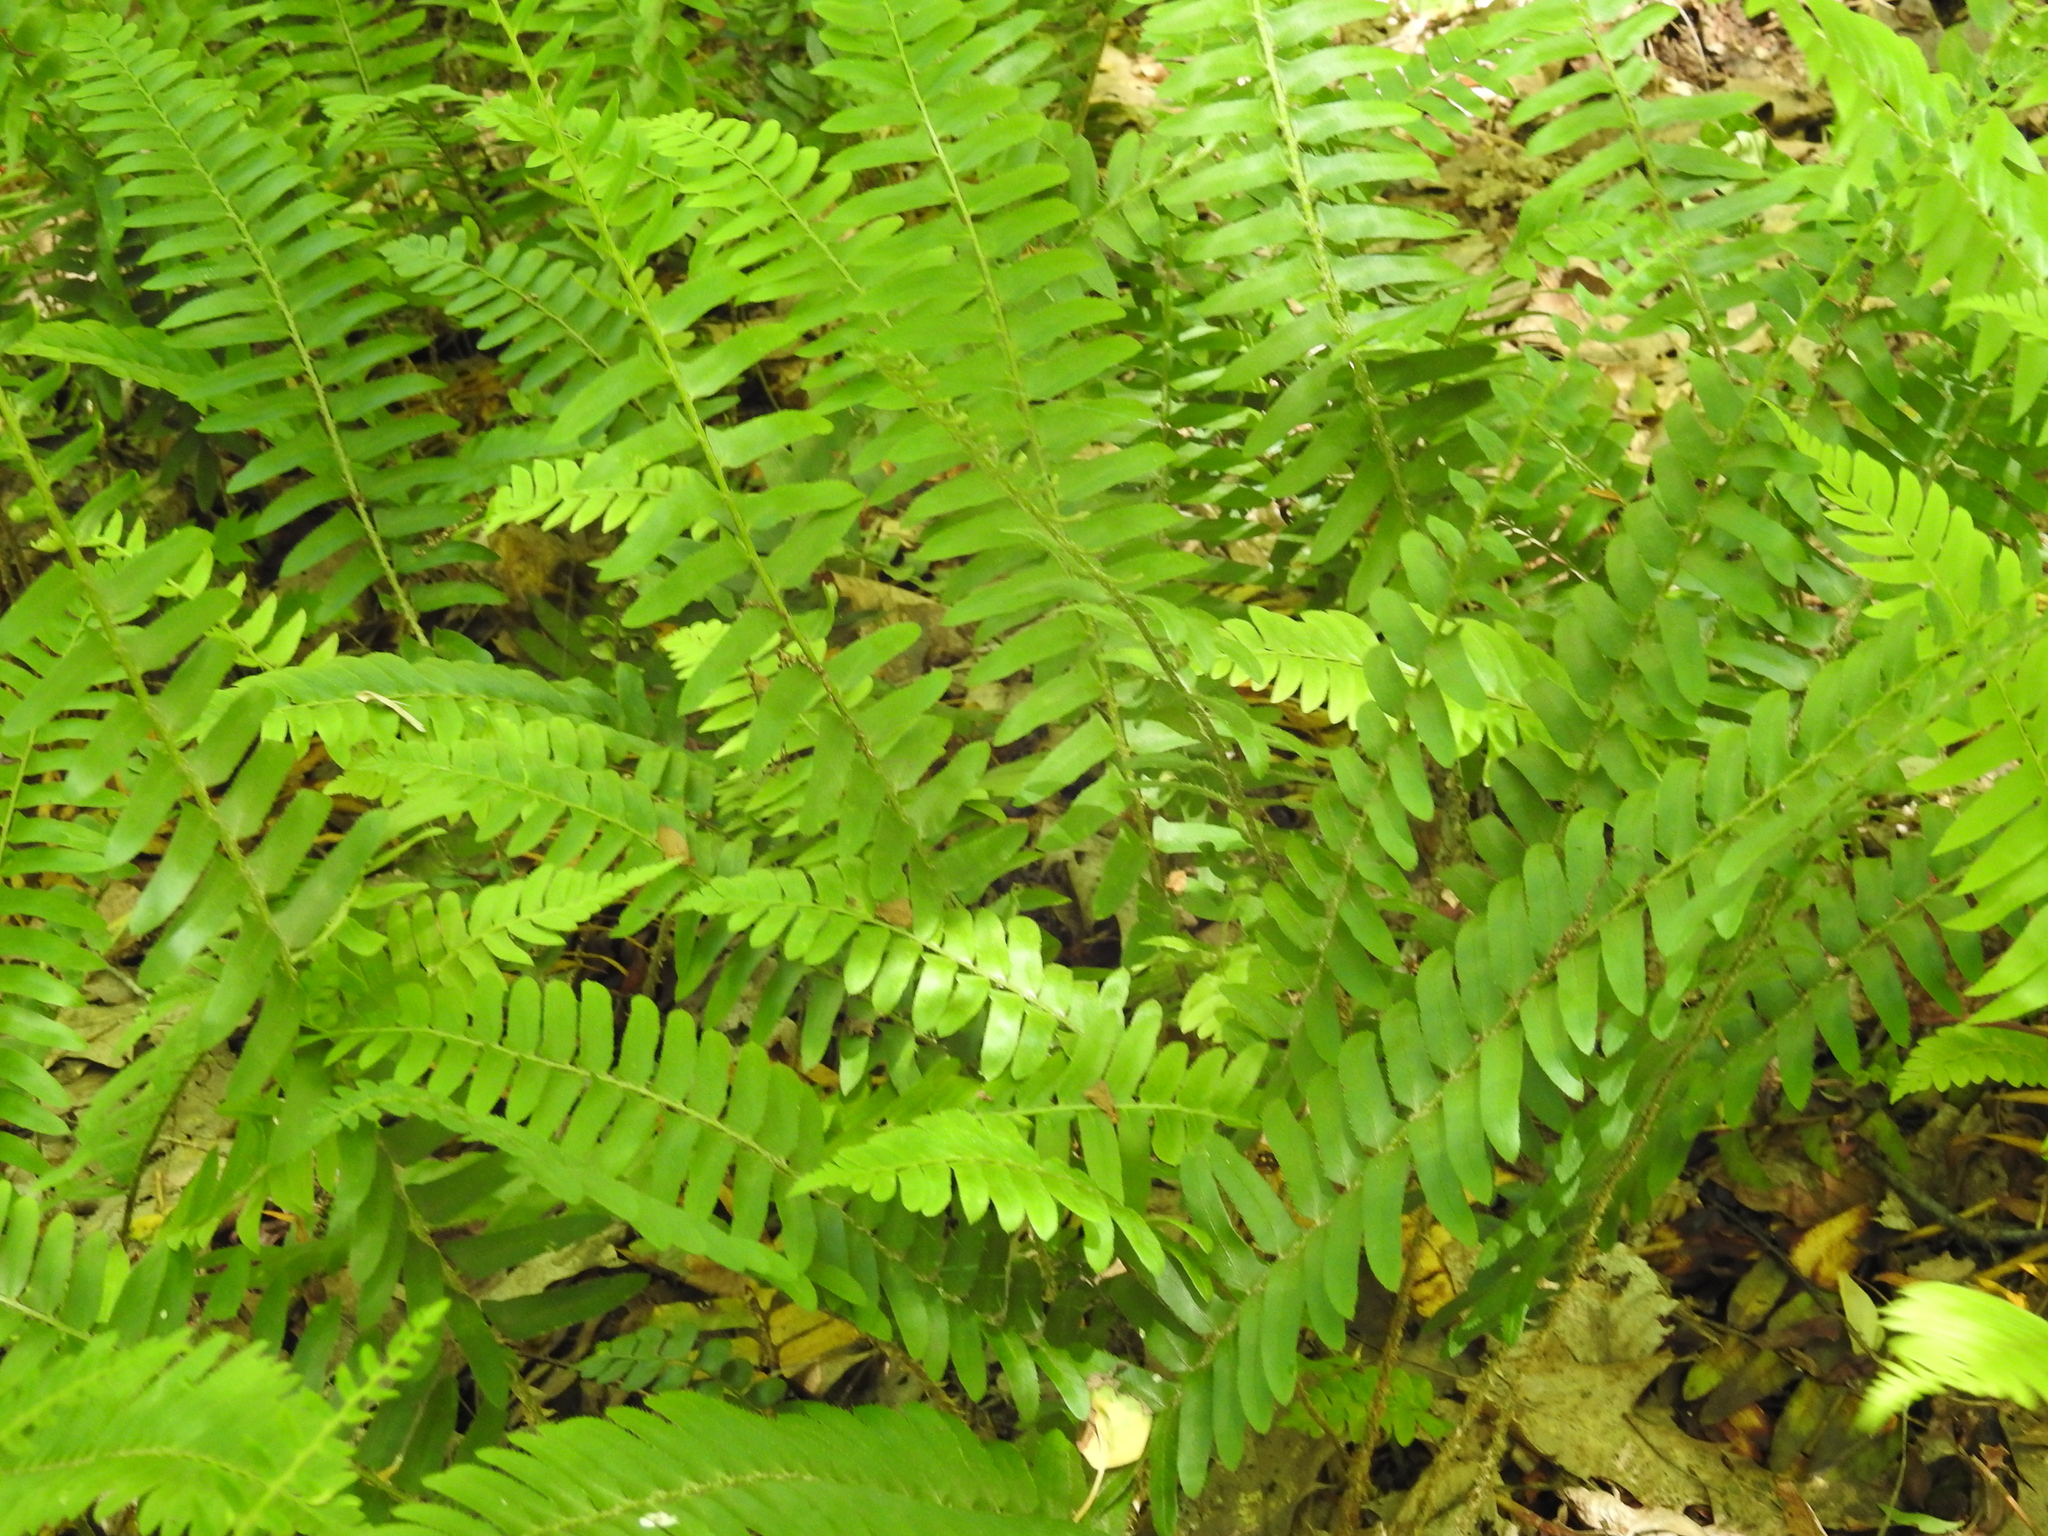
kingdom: Plantae
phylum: Tracheophyta
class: Polypodiopsida
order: Polypodiales
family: Dryopteridaceae
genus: Polystichum
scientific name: Polystichum acrostichoides
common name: Christmas fern
